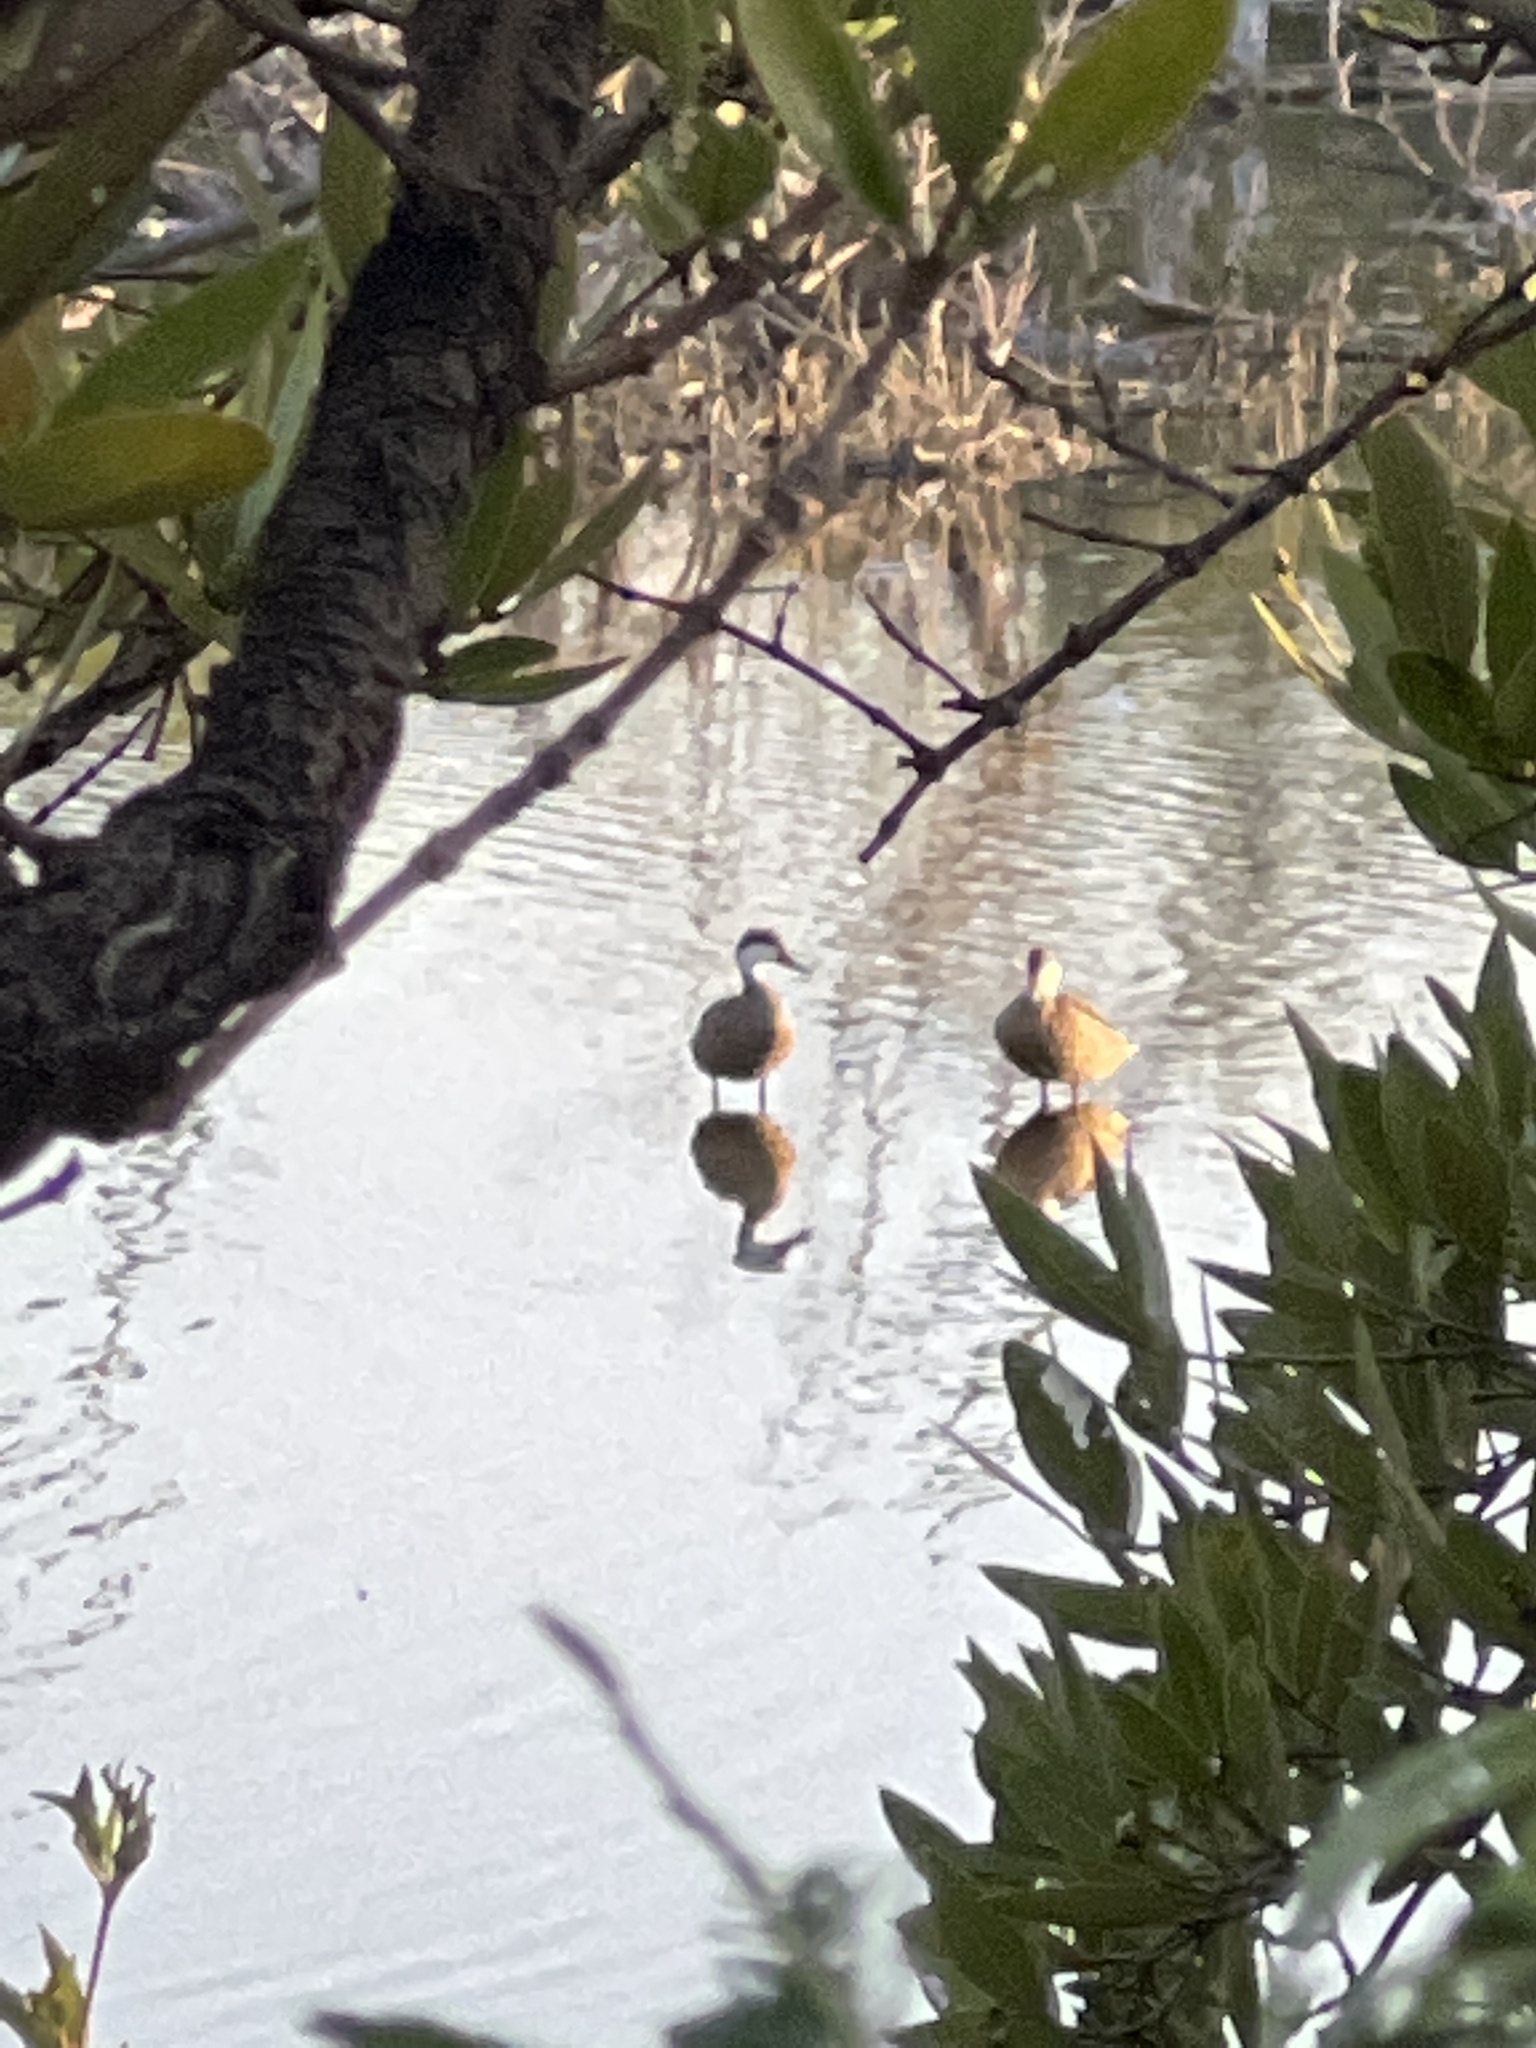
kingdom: Animalia
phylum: Chordata
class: Aves
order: Anseriformes
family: Anatidae
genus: Anas
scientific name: Anas bahamensis
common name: White-cheeked pintail
